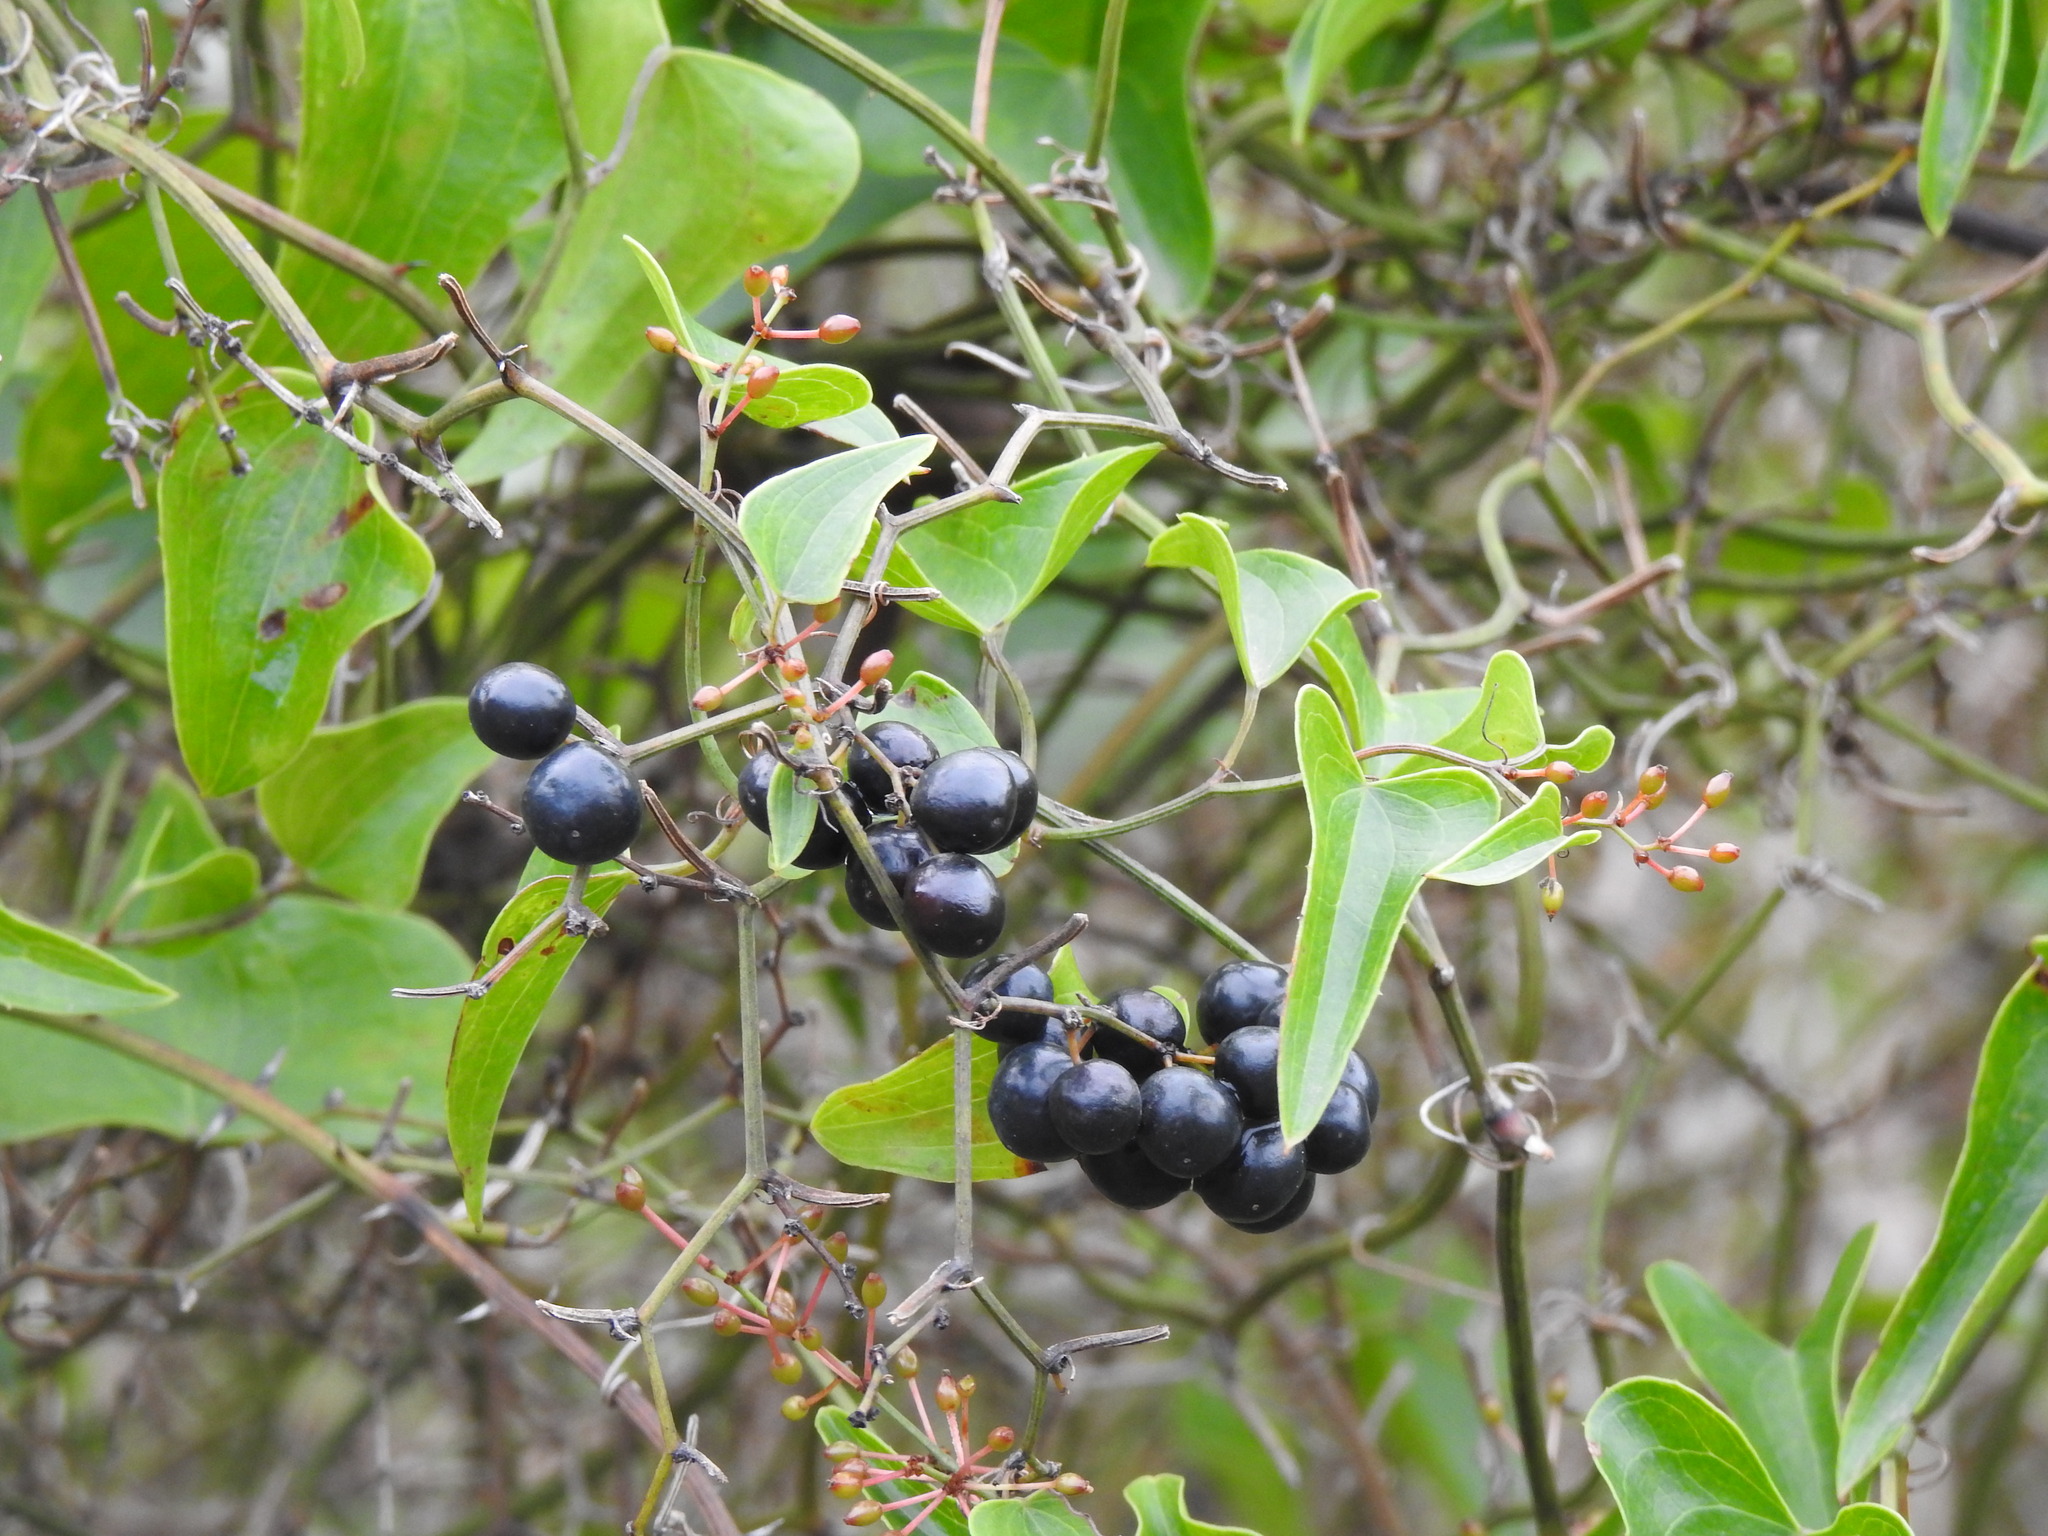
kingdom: Plantae
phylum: Tracheophyta
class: Liliopsida
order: Liliales
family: Smilacaceae
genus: Smilax
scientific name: Smilax aspera
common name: Common smilax
